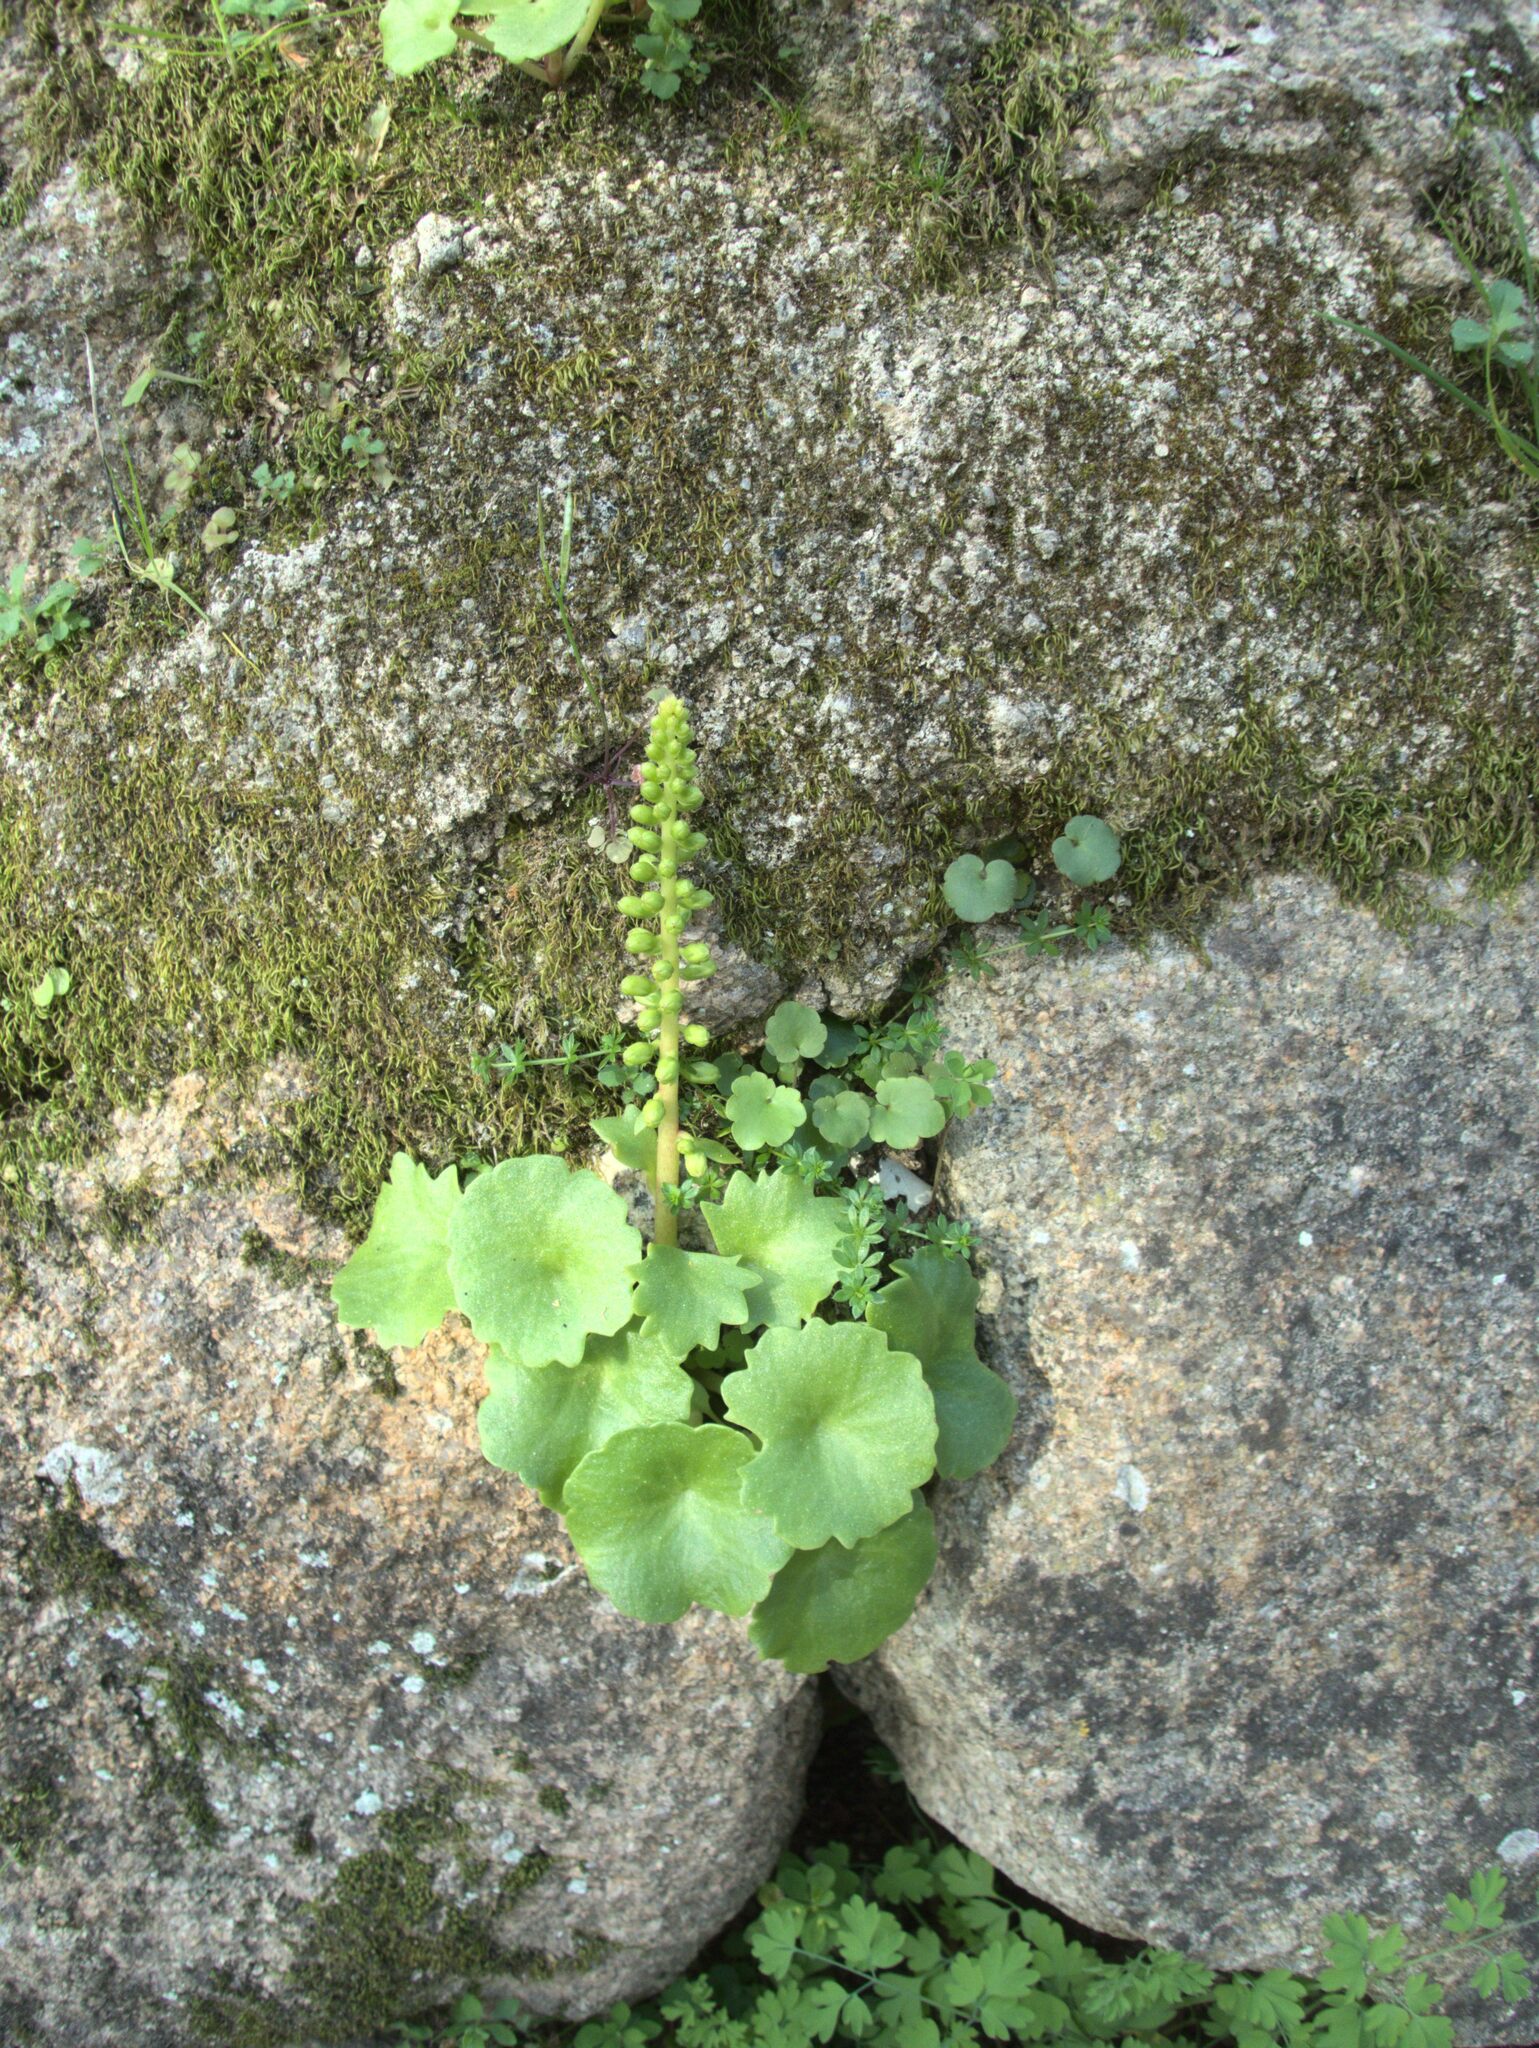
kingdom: Plantae
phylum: Tracheophyta
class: Magnoliopsida
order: Saxifragales
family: Crassulaceae
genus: Umbilicus
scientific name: Umbilicus rupestris
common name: Navelwort
